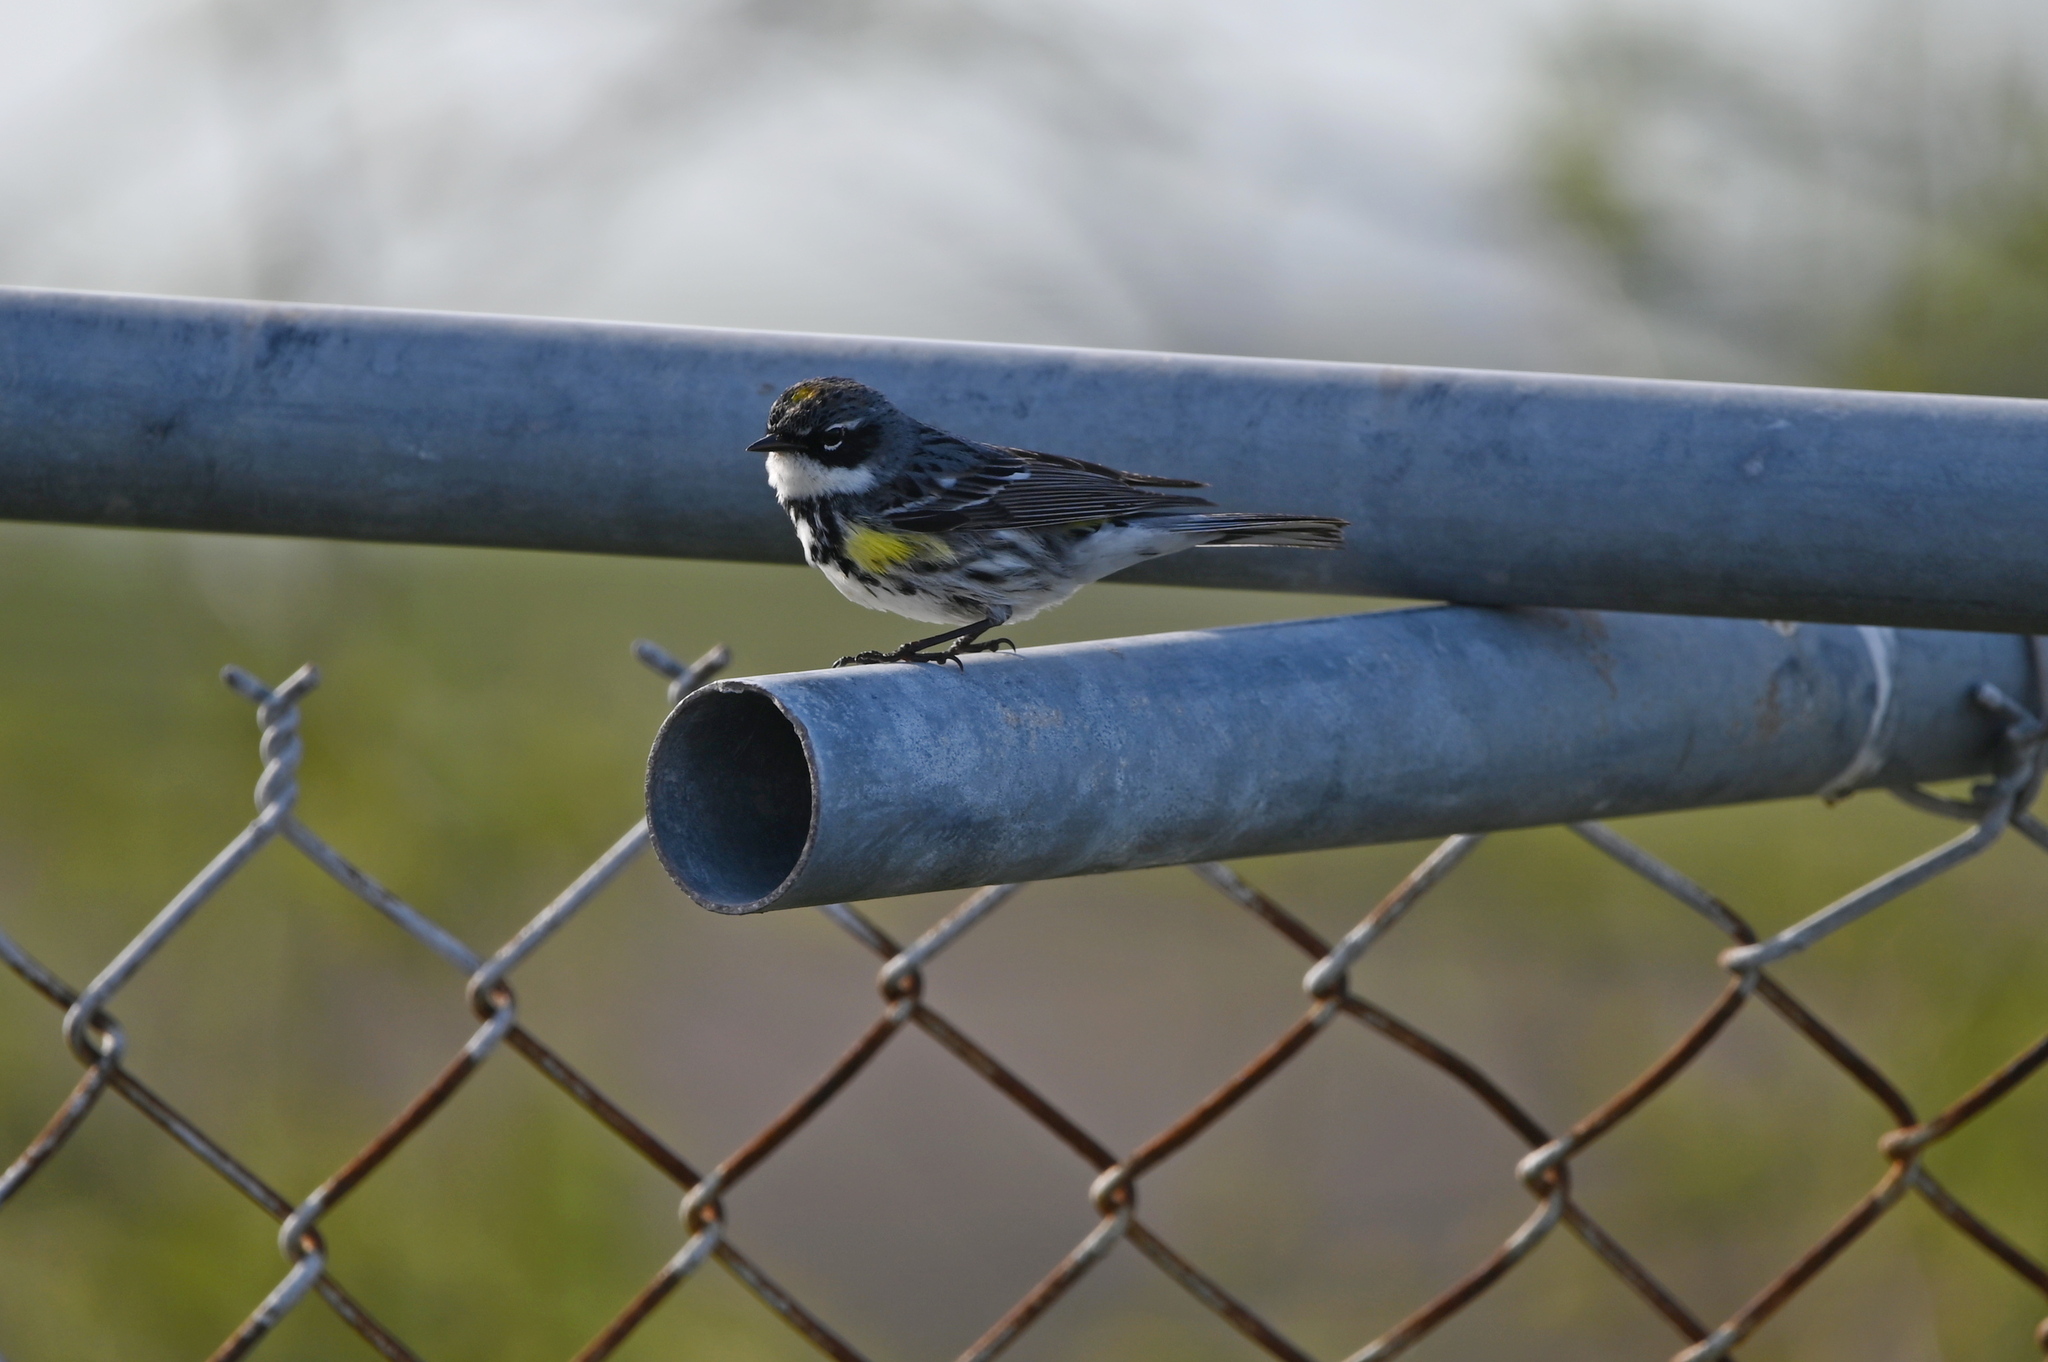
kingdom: Animalia
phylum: Chordata
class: Aves
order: Passeriformes
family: Parulidae
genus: Setophaga
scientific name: Setophaga coronata
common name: Myrtle warbler
